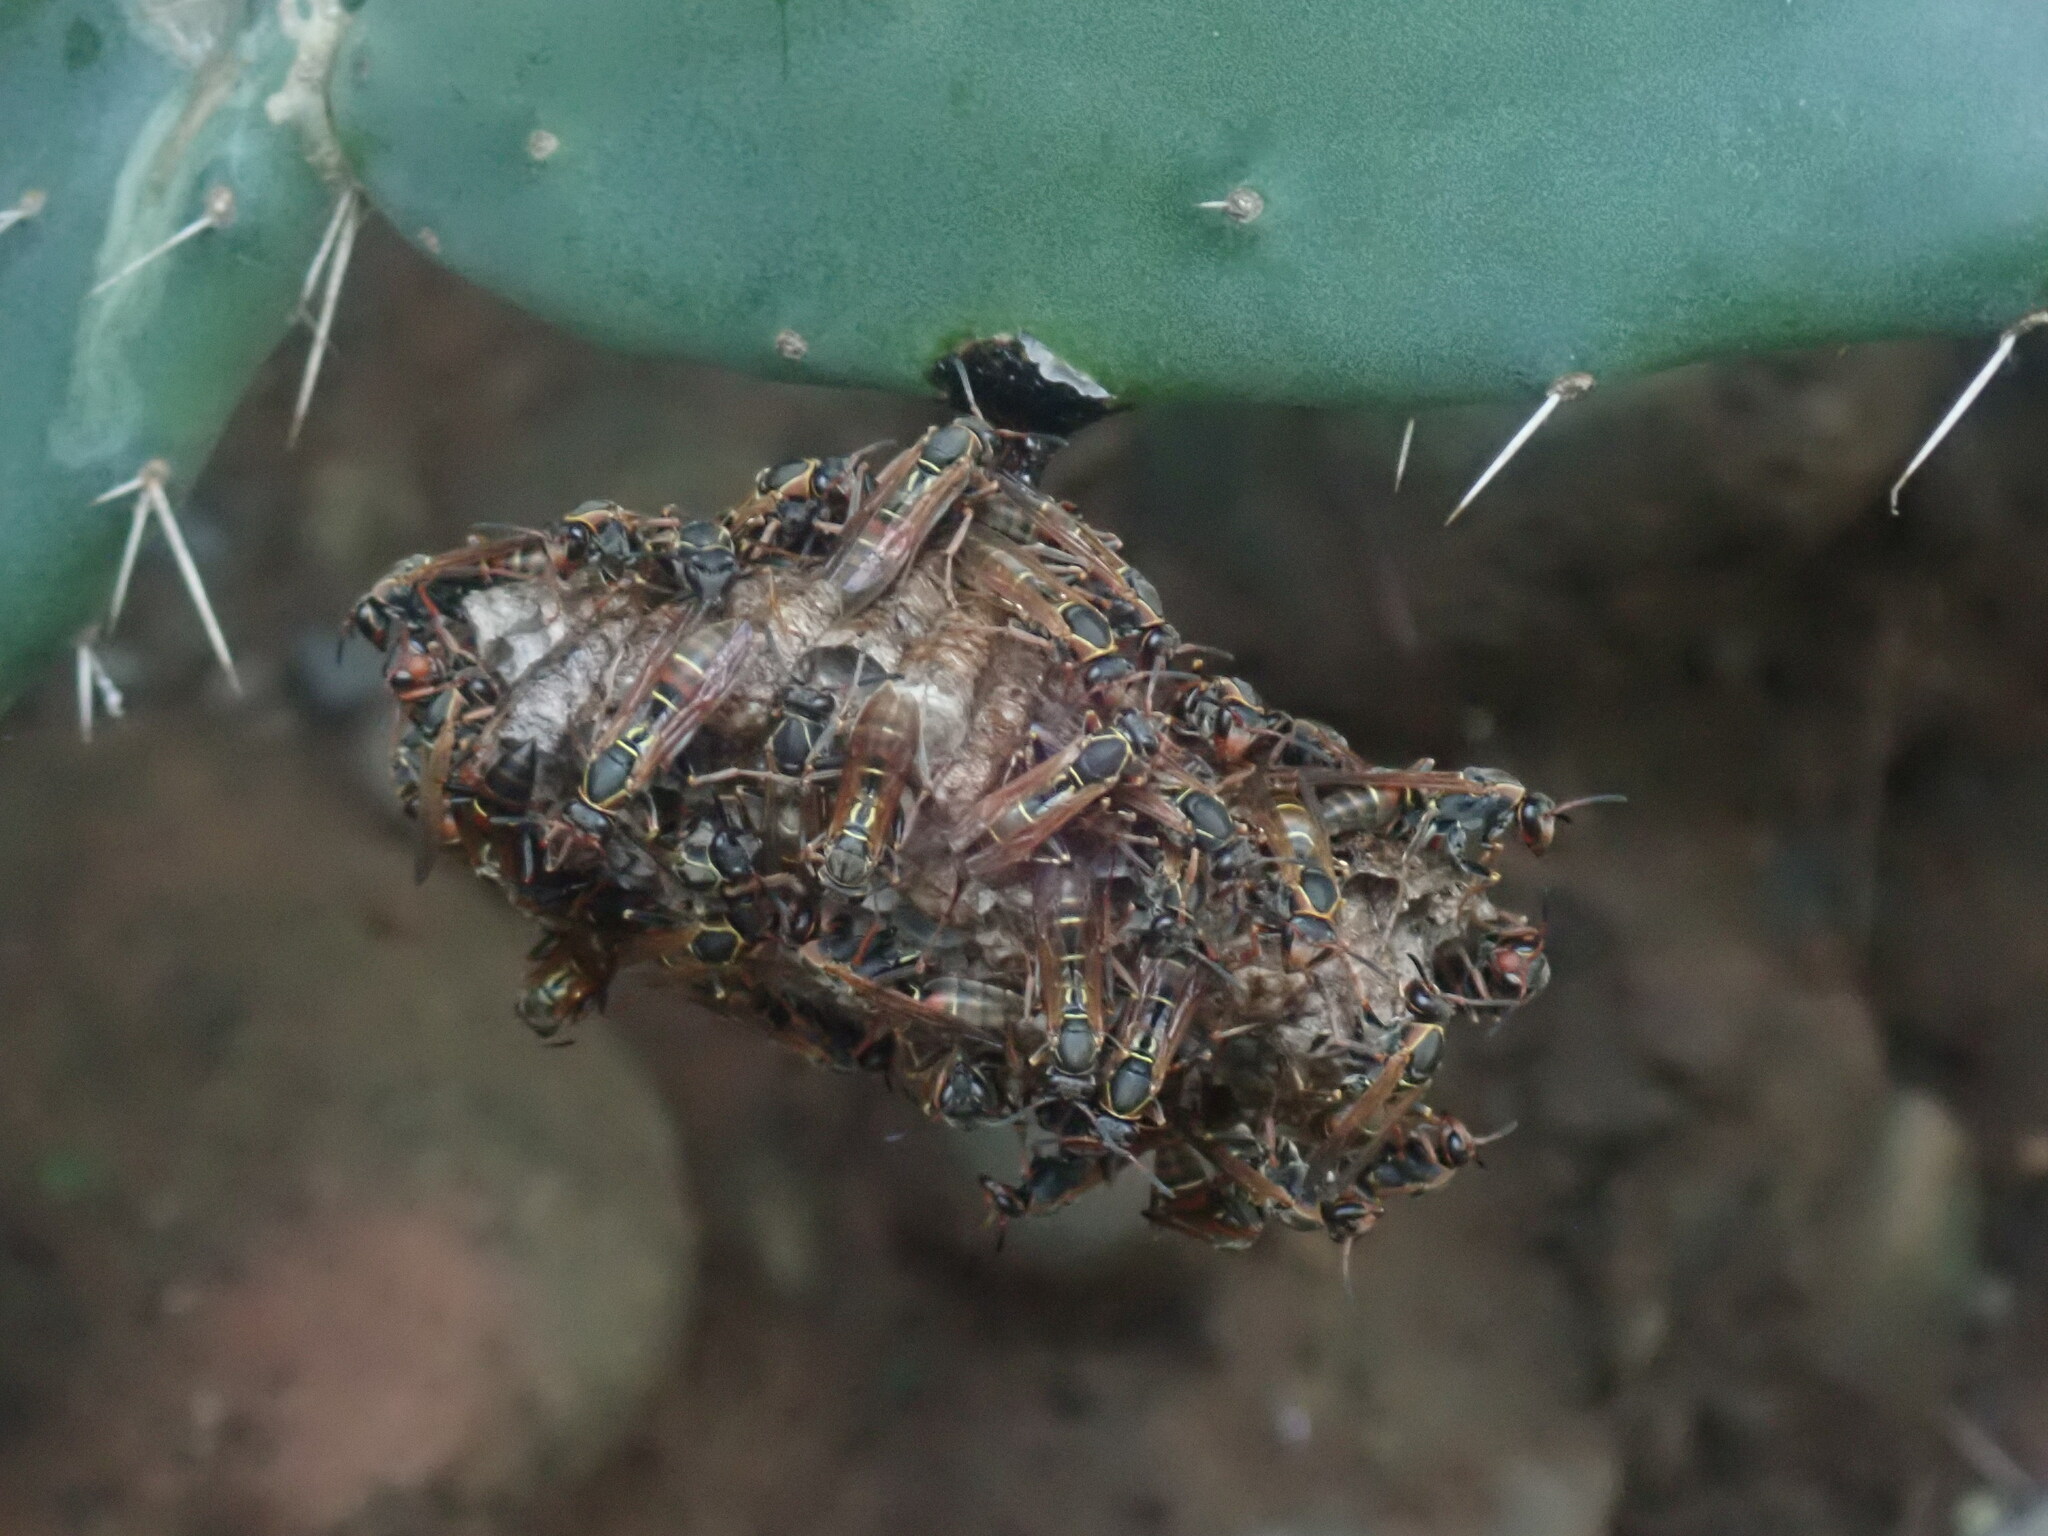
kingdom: Animalia
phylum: Arthropoda
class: Insecta
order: Hymenoptera
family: Eumenidae
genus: Polistes
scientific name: Polistes pacificus
